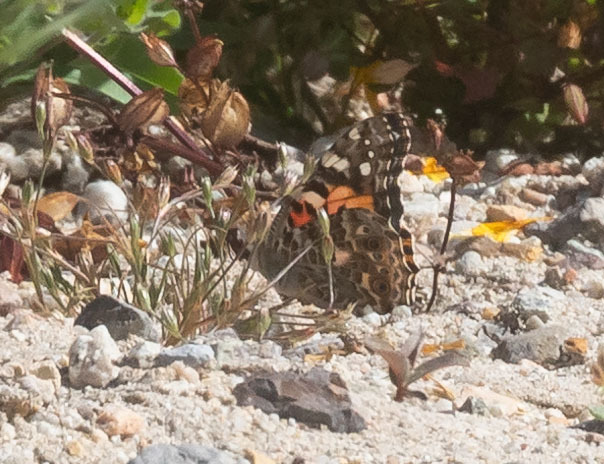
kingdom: Animalia
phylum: Arthropoda
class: Insecta
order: Lepidoptera
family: Nymphalidae
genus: Vanessa
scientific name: Vanessa cardui
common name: Painted lady
